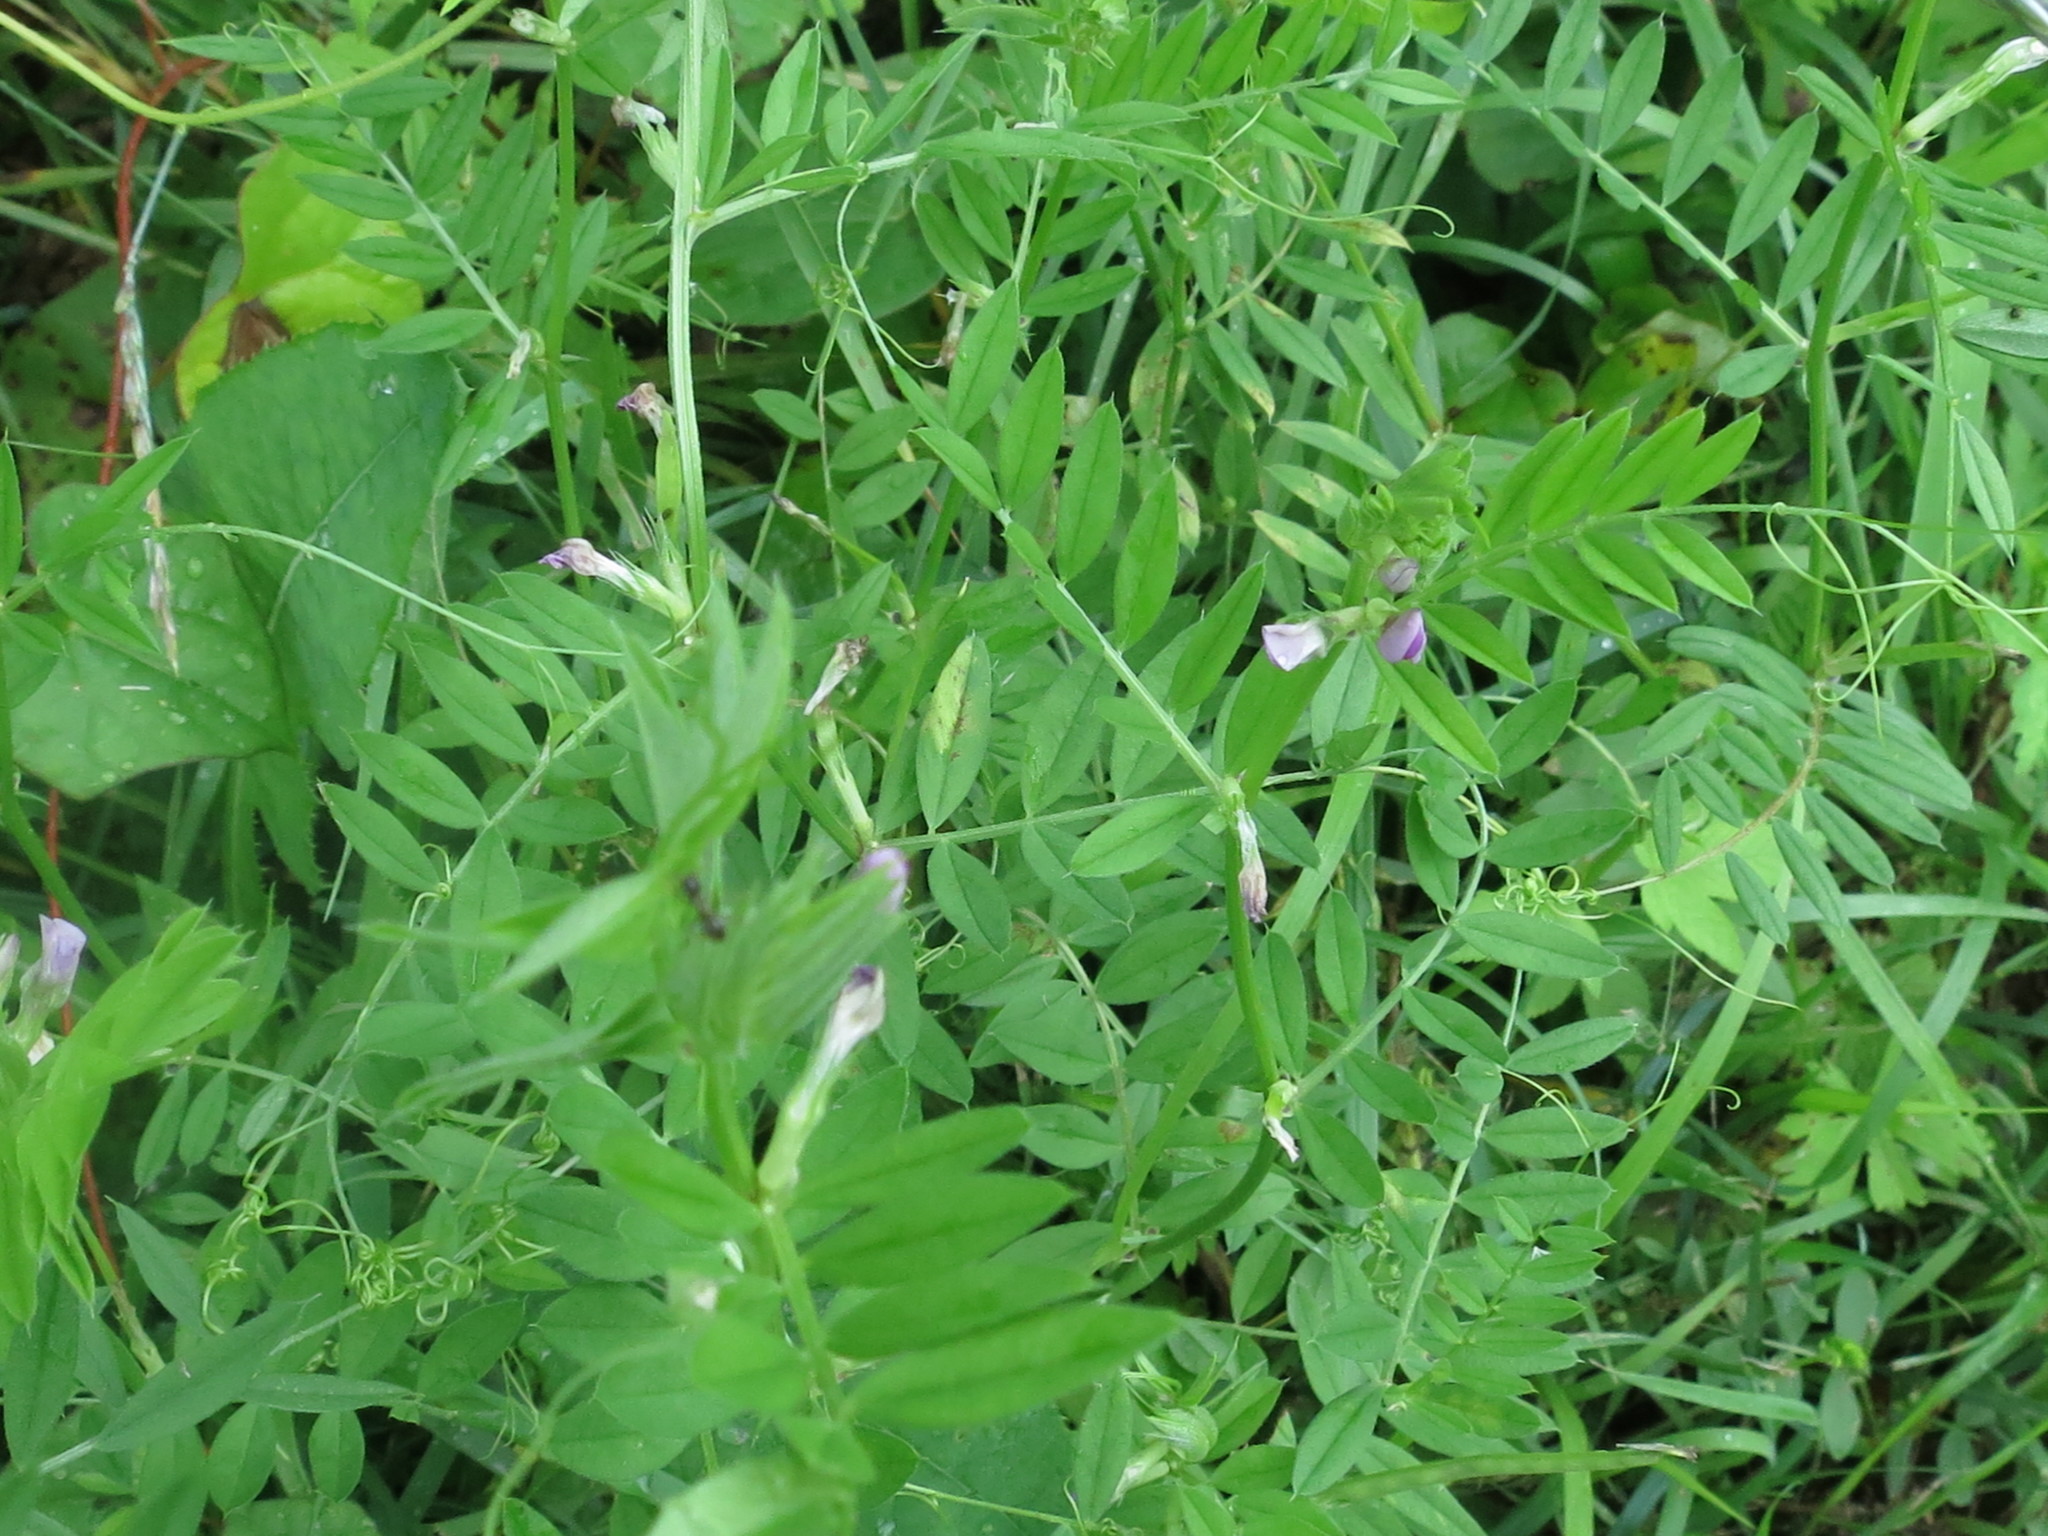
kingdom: Plantae
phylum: Tracheophyta
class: Magnoliopsida
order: Fabales
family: Fabaceae
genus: Vicia
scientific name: Vicia sativa
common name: Garden vetch
